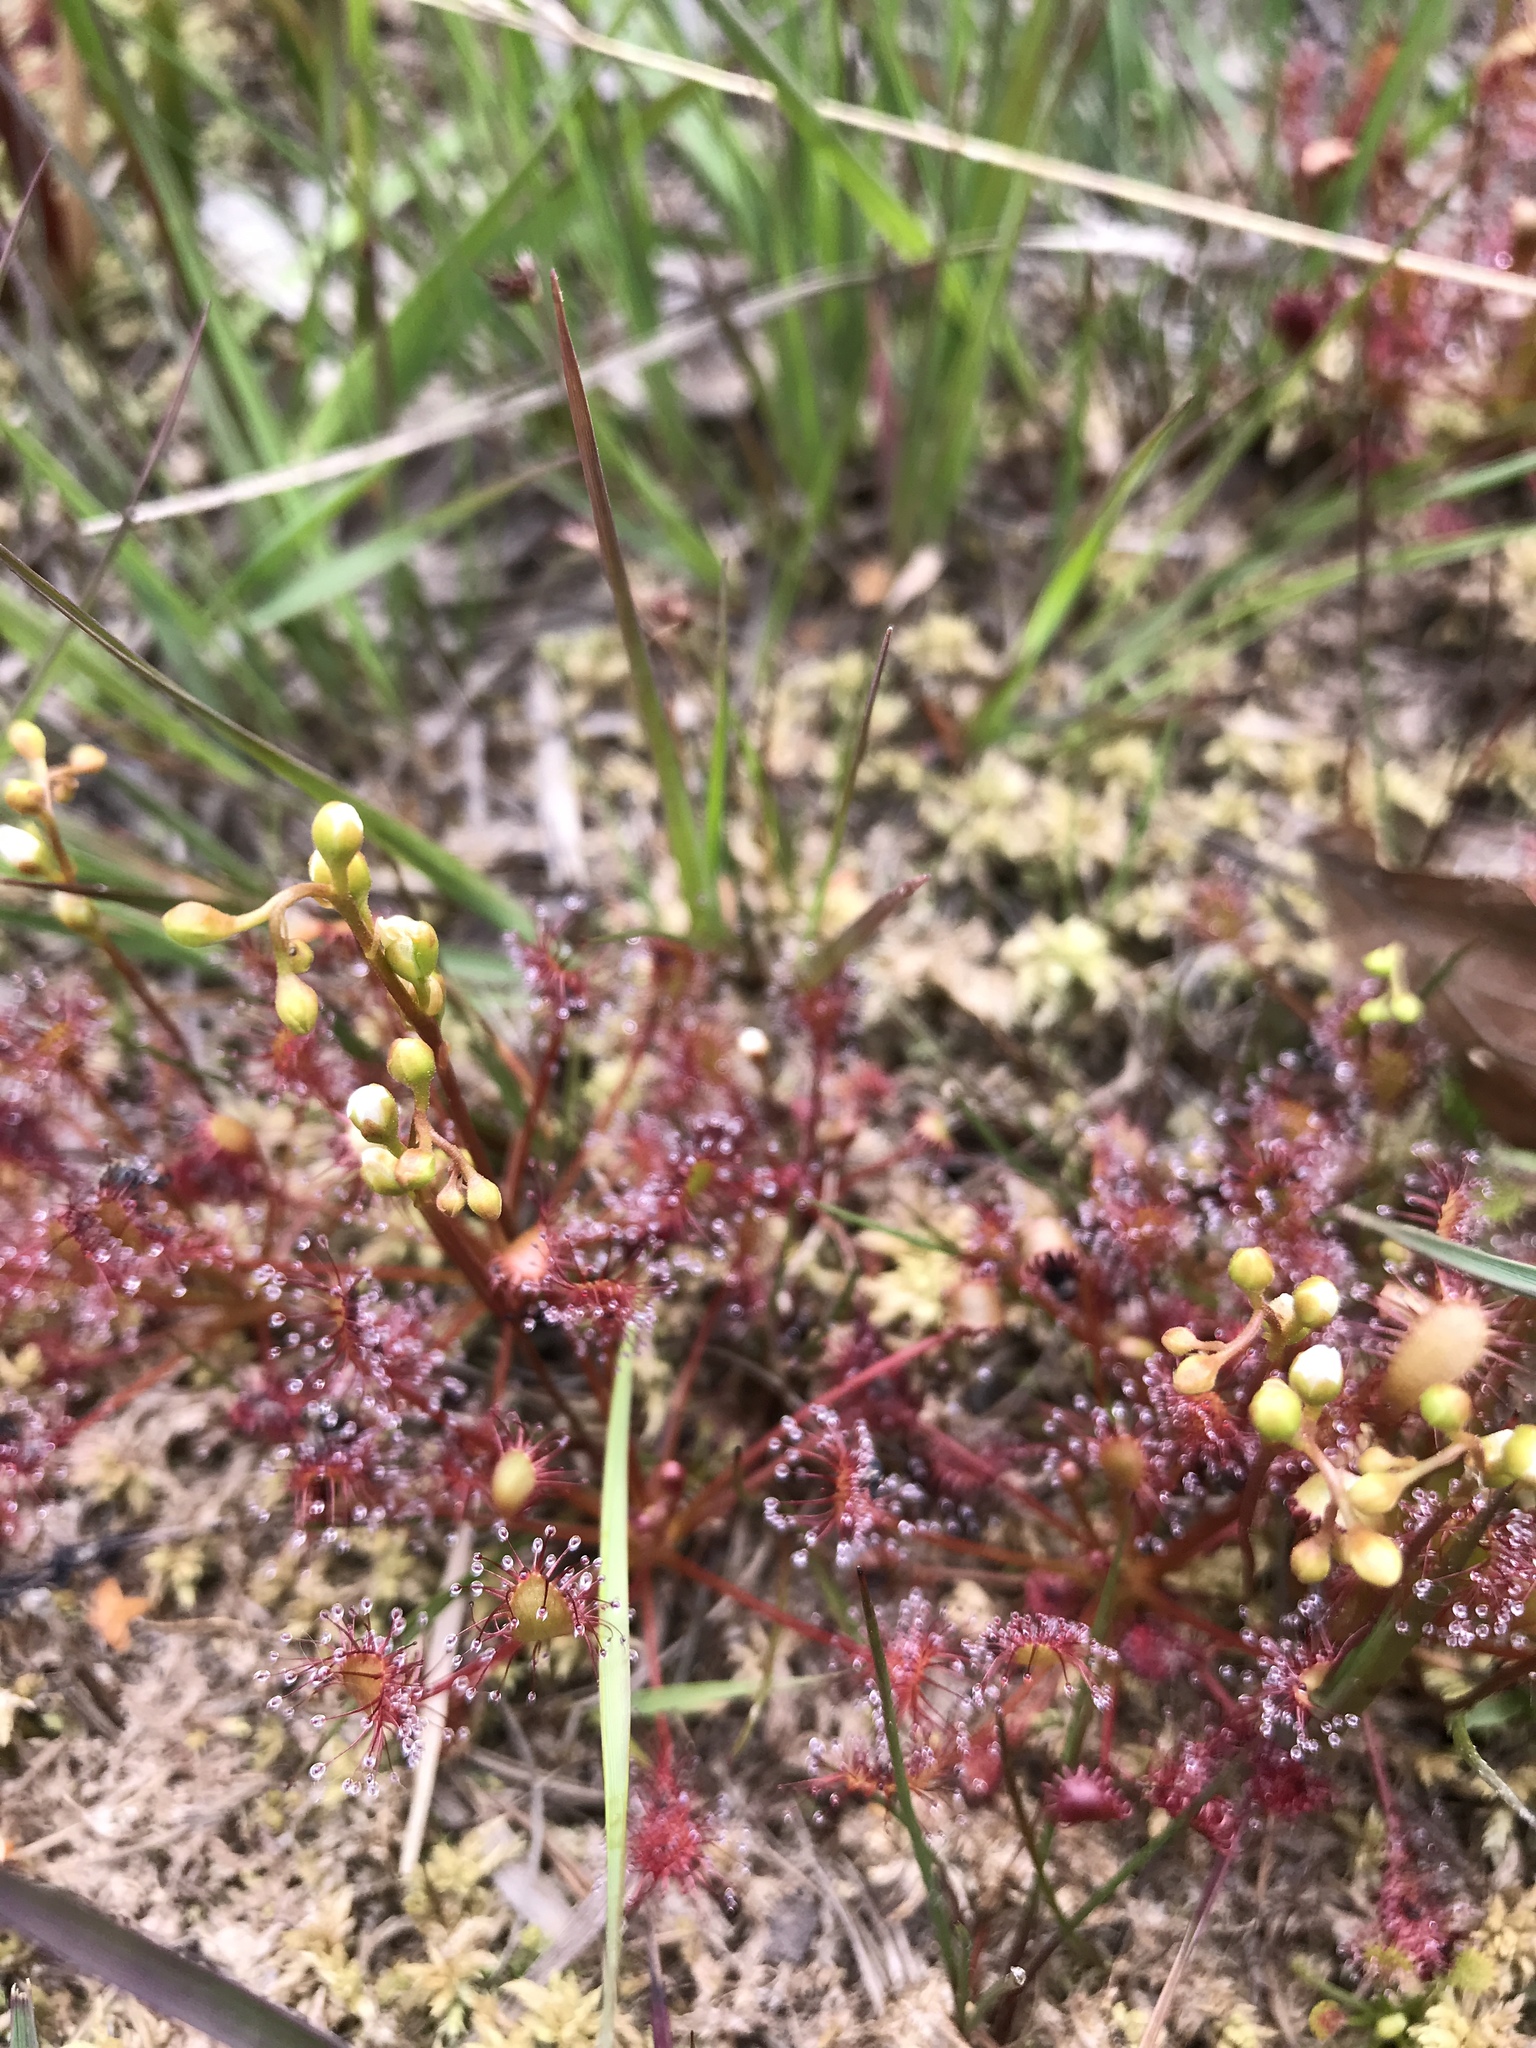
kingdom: Plantae
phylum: Tracheophyta
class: Magnoliopsida
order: Caryophyllales
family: Droseraceae
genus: Drosera
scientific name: Drosera intermedia
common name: Oblong-leaved sundew
